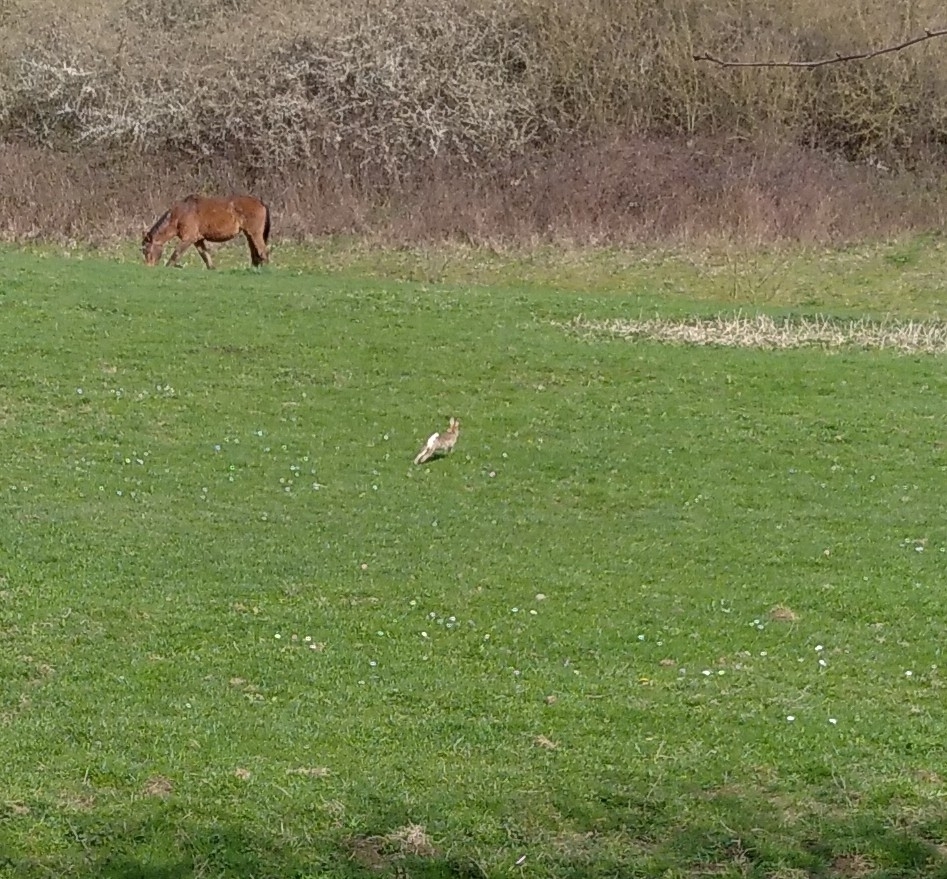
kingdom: Animalia
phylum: Chordata
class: Mammalia
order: Lagomorpha
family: Leporidae
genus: Oryctolagus
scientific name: Oryctolagus cuniculus
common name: European rabbit
